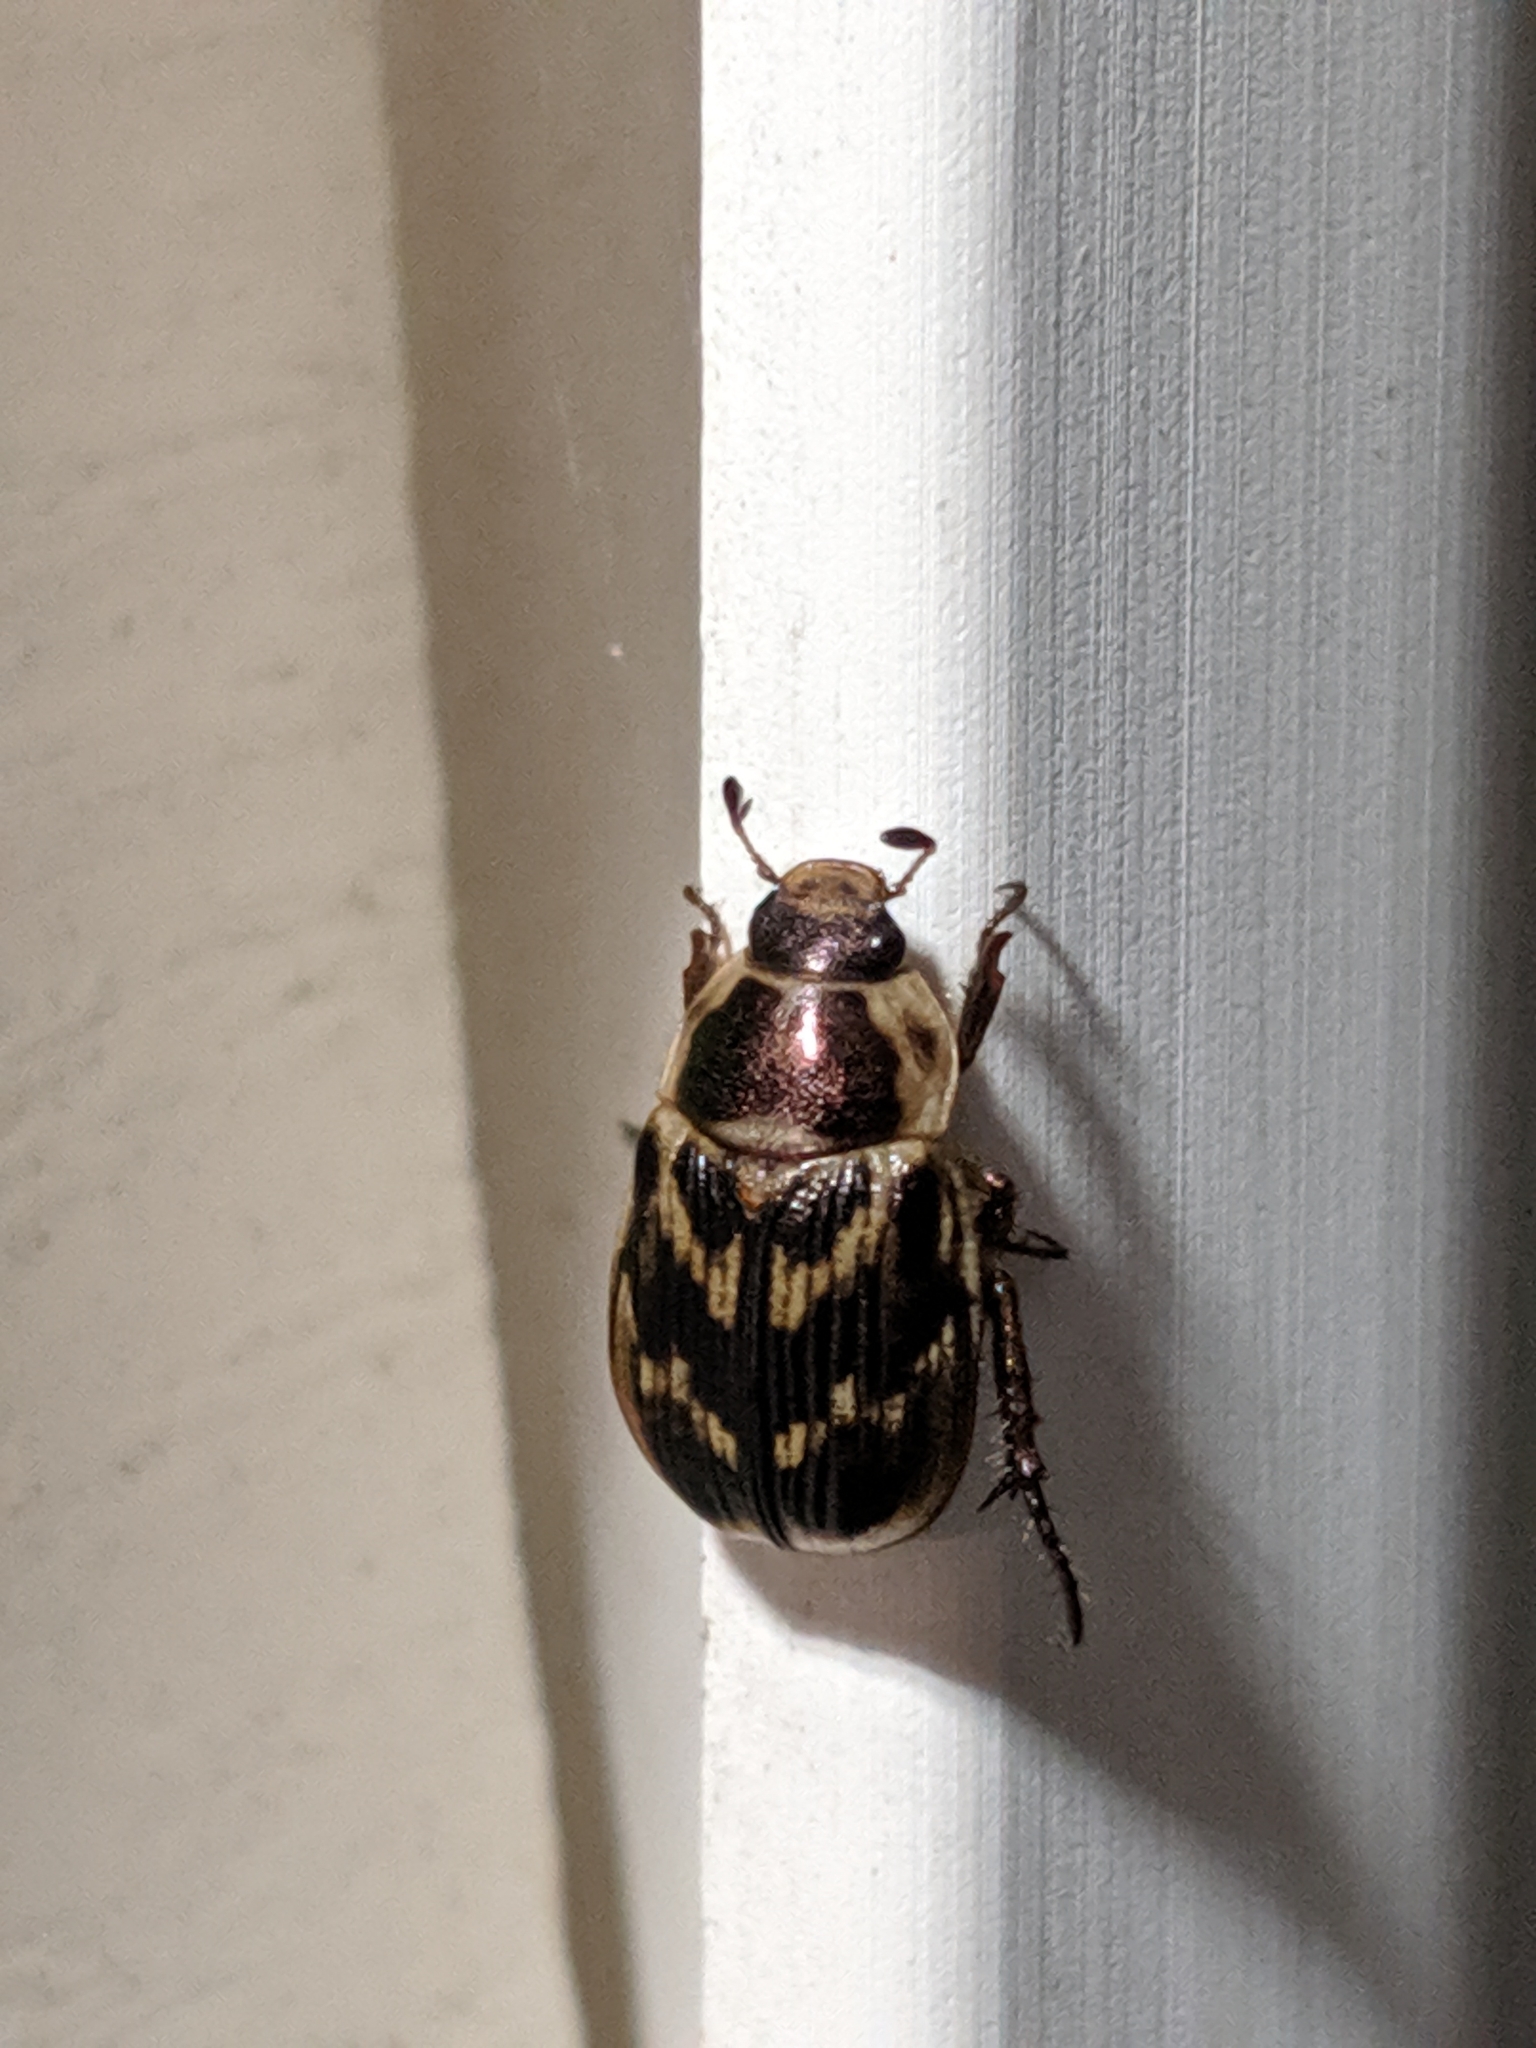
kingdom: Animalia
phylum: Arthropoda
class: Insecta
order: Coleoptera
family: Scarabaeidae
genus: Exomala
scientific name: Exomala orientalis
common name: Oriental beetle
